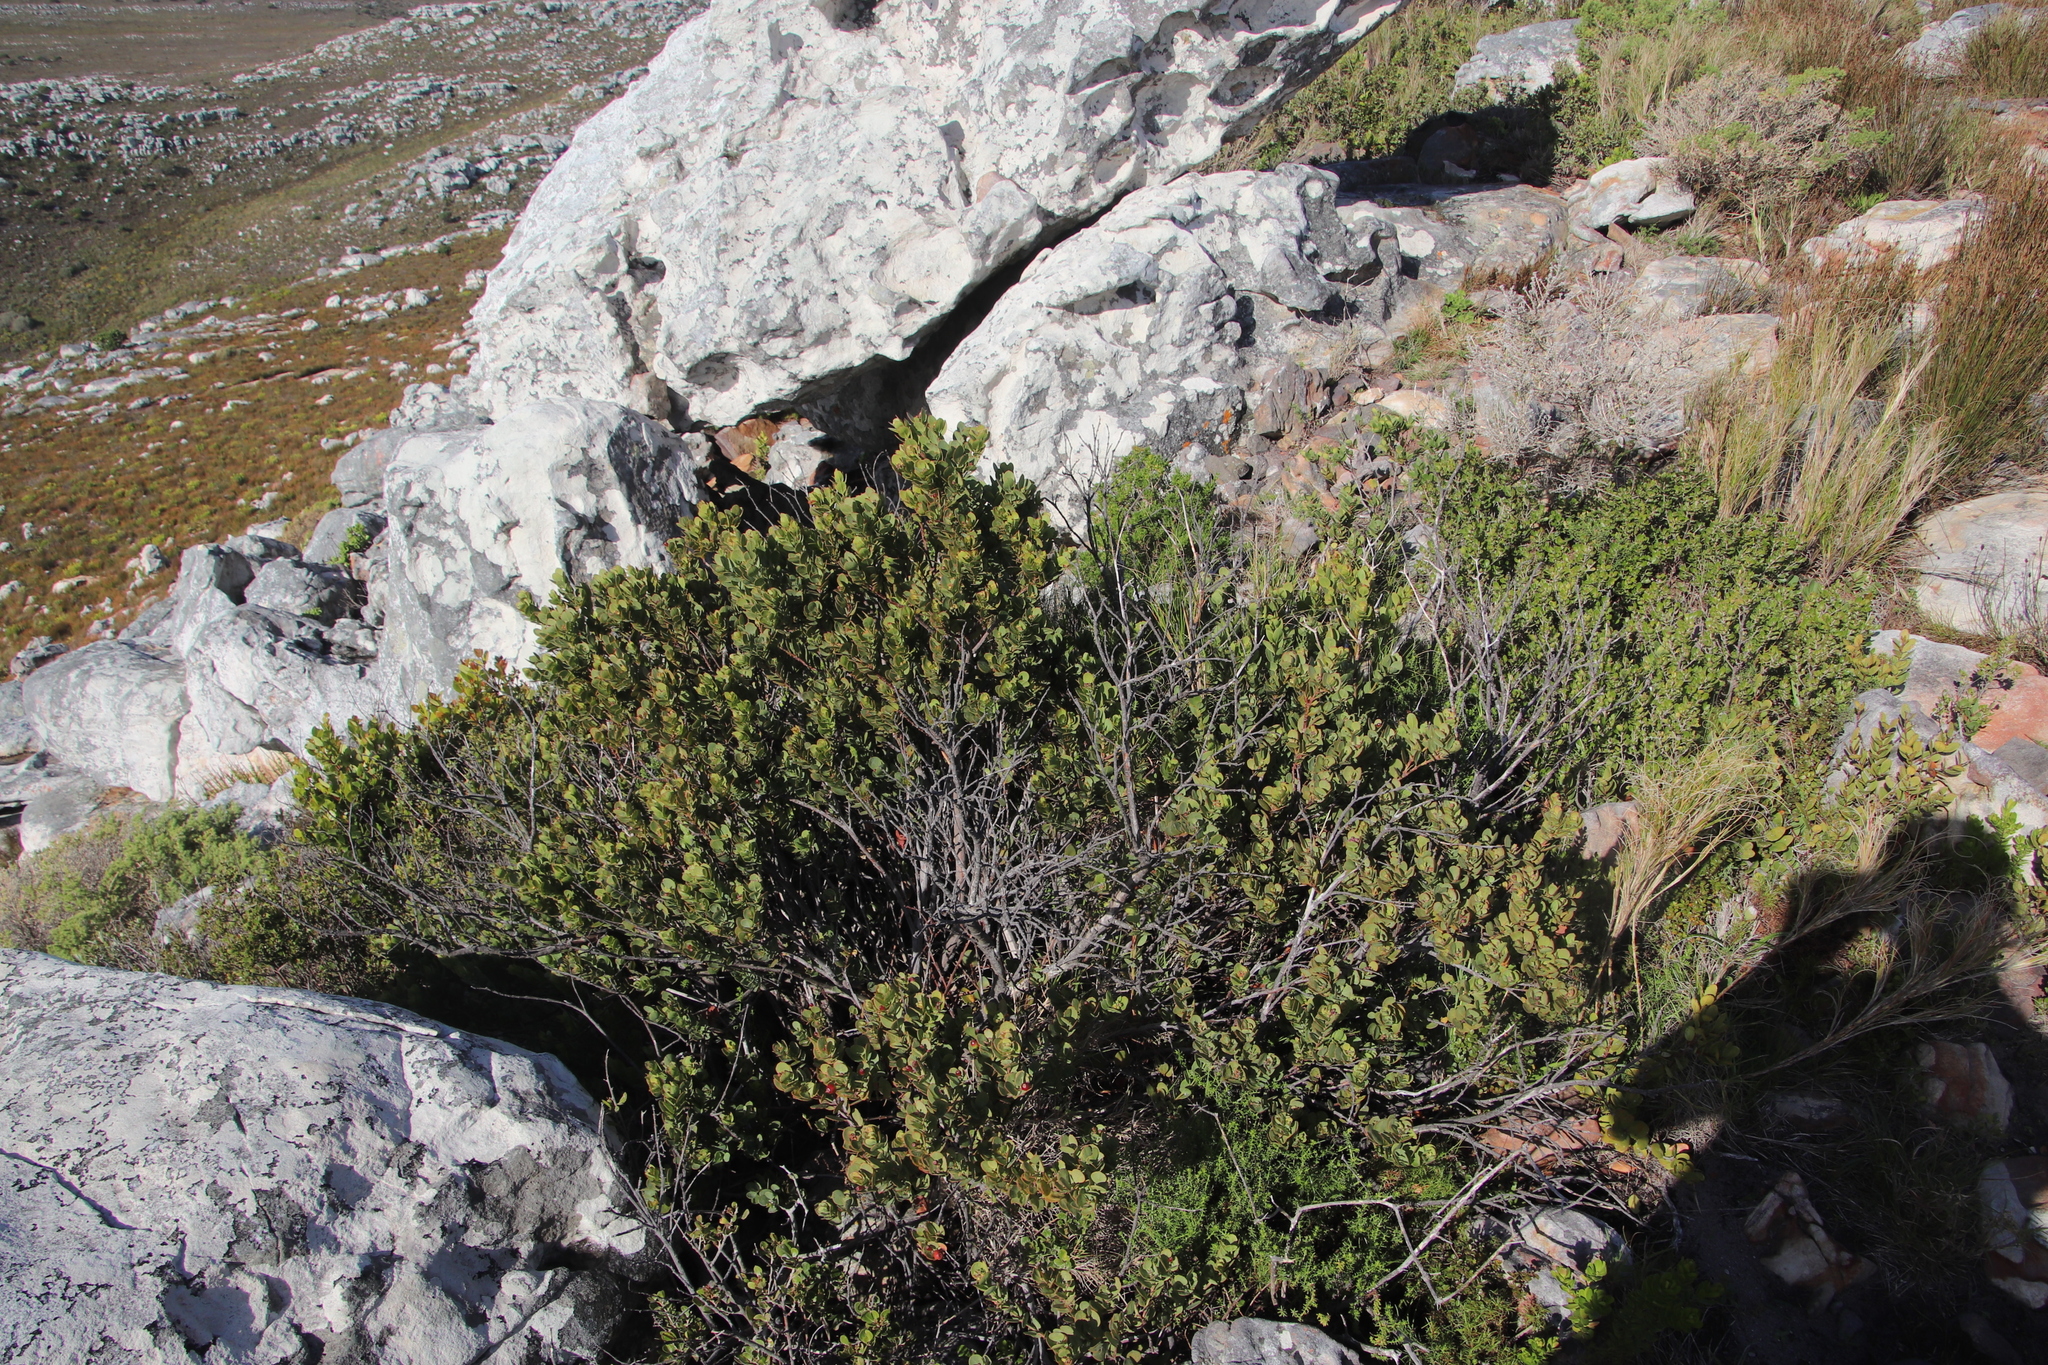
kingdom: Plantae
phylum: Tracheophyta
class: Magnoliopsida
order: Santalales
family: Santalaceae
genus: Osyris
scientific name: Osyris compressa
